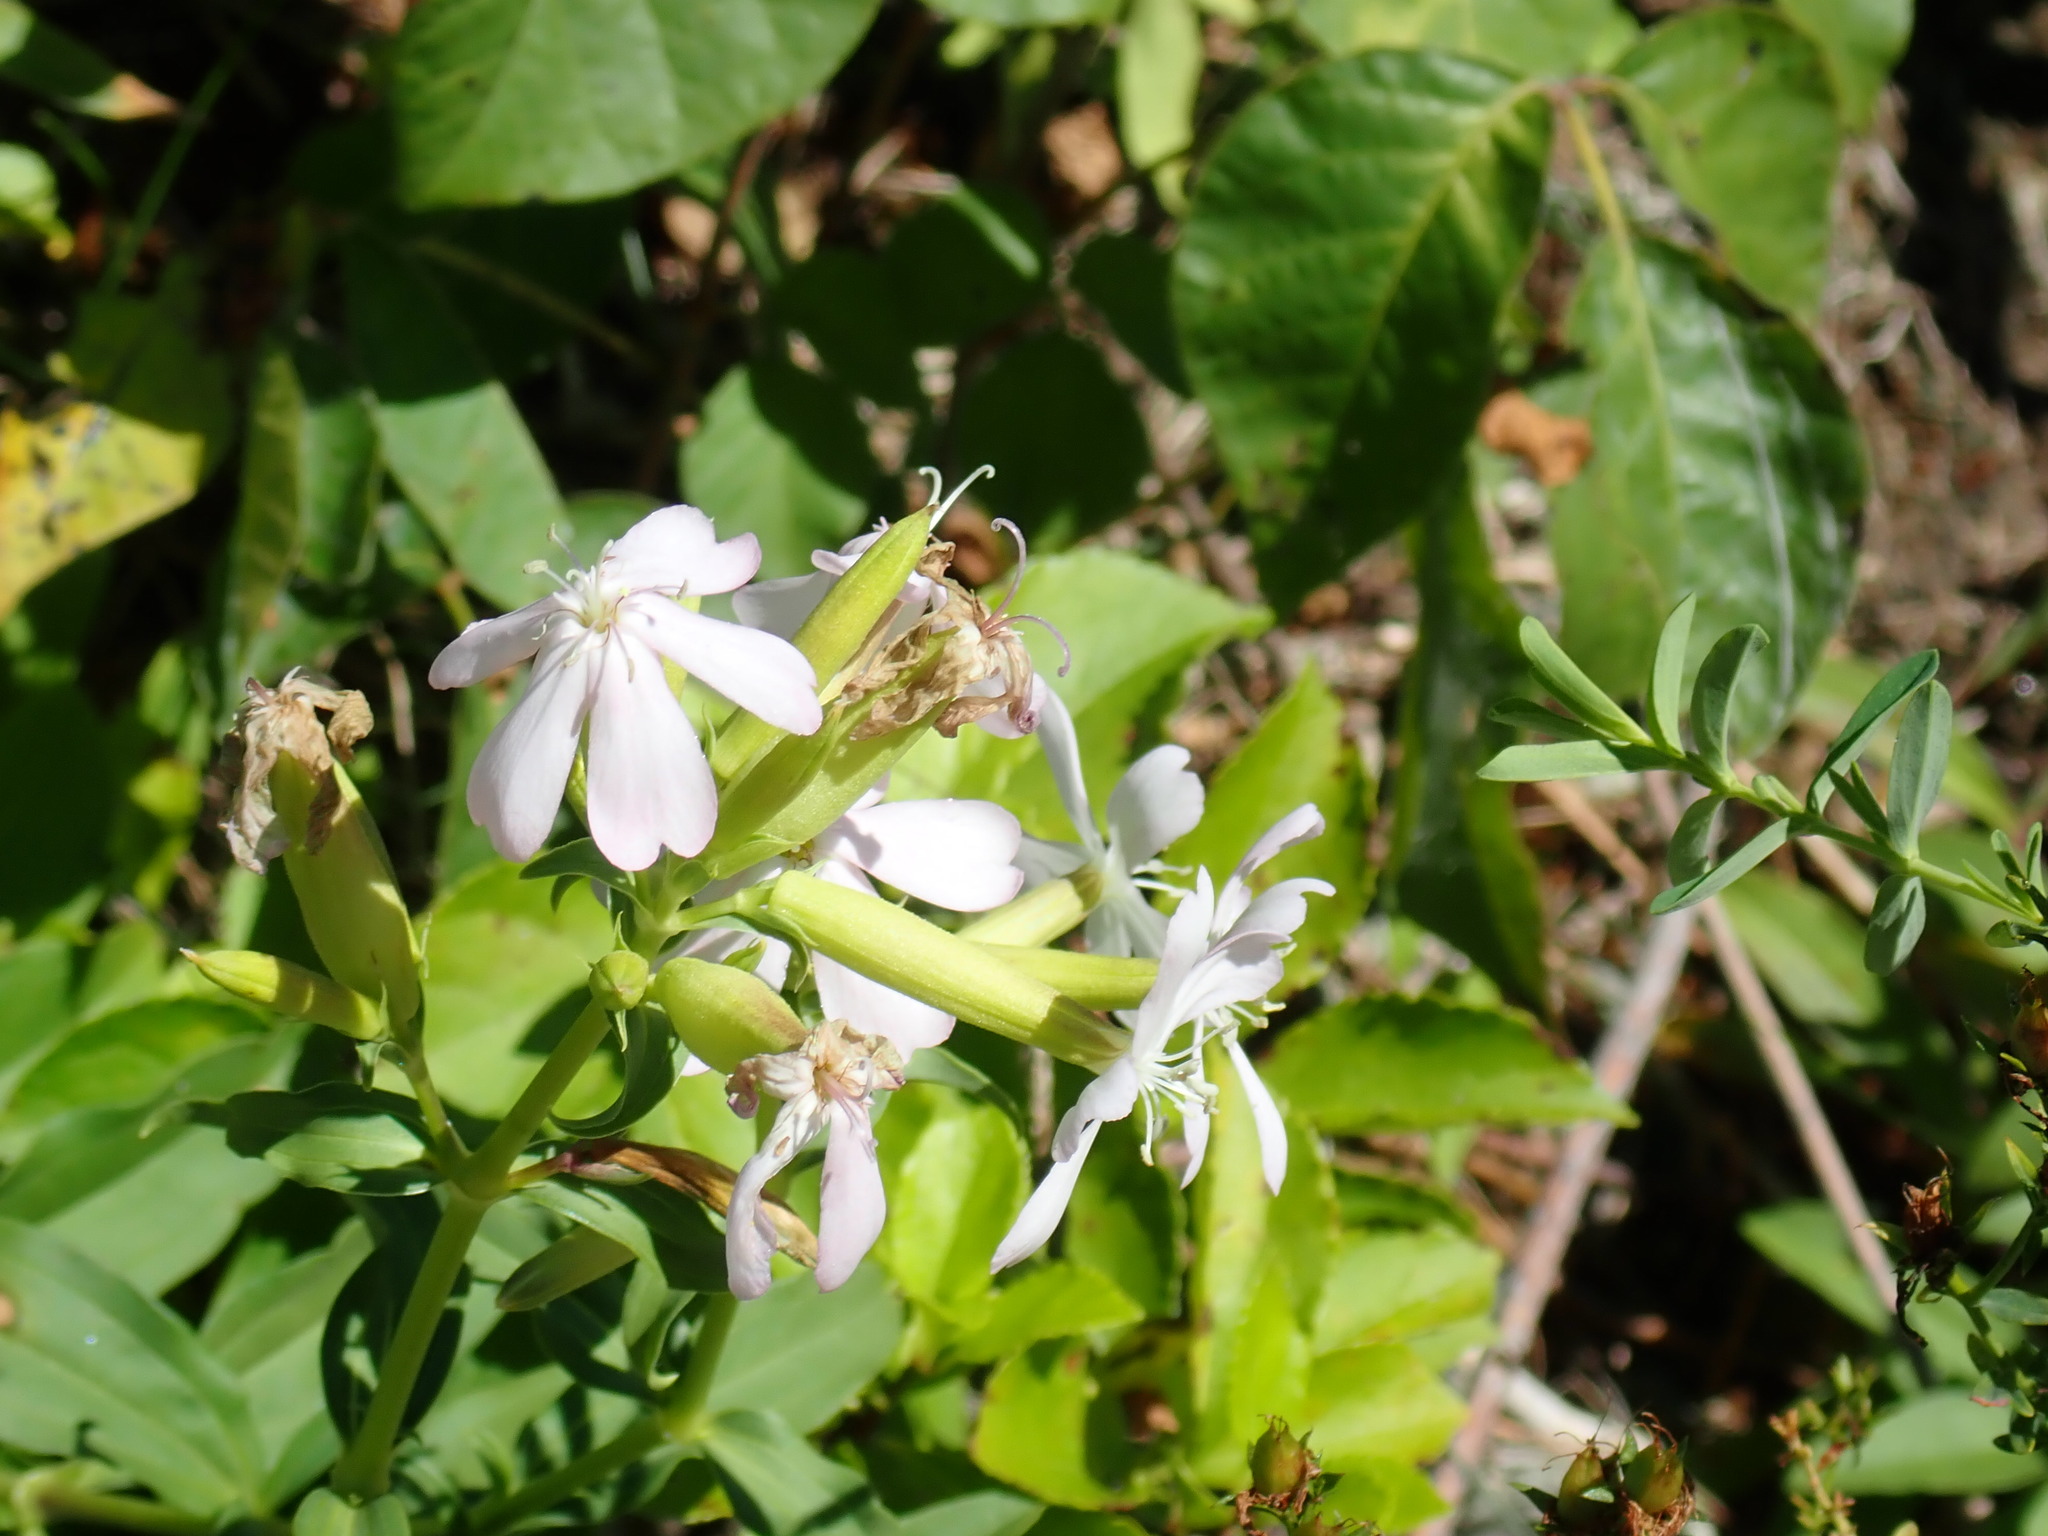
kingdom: Plantae
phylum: Tracheophyta
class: Magnoliopsida
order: Caryophyllales
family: Caryophyllaceae
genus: Saponaria
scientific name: Saponaria officinalis
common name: Soapwort
